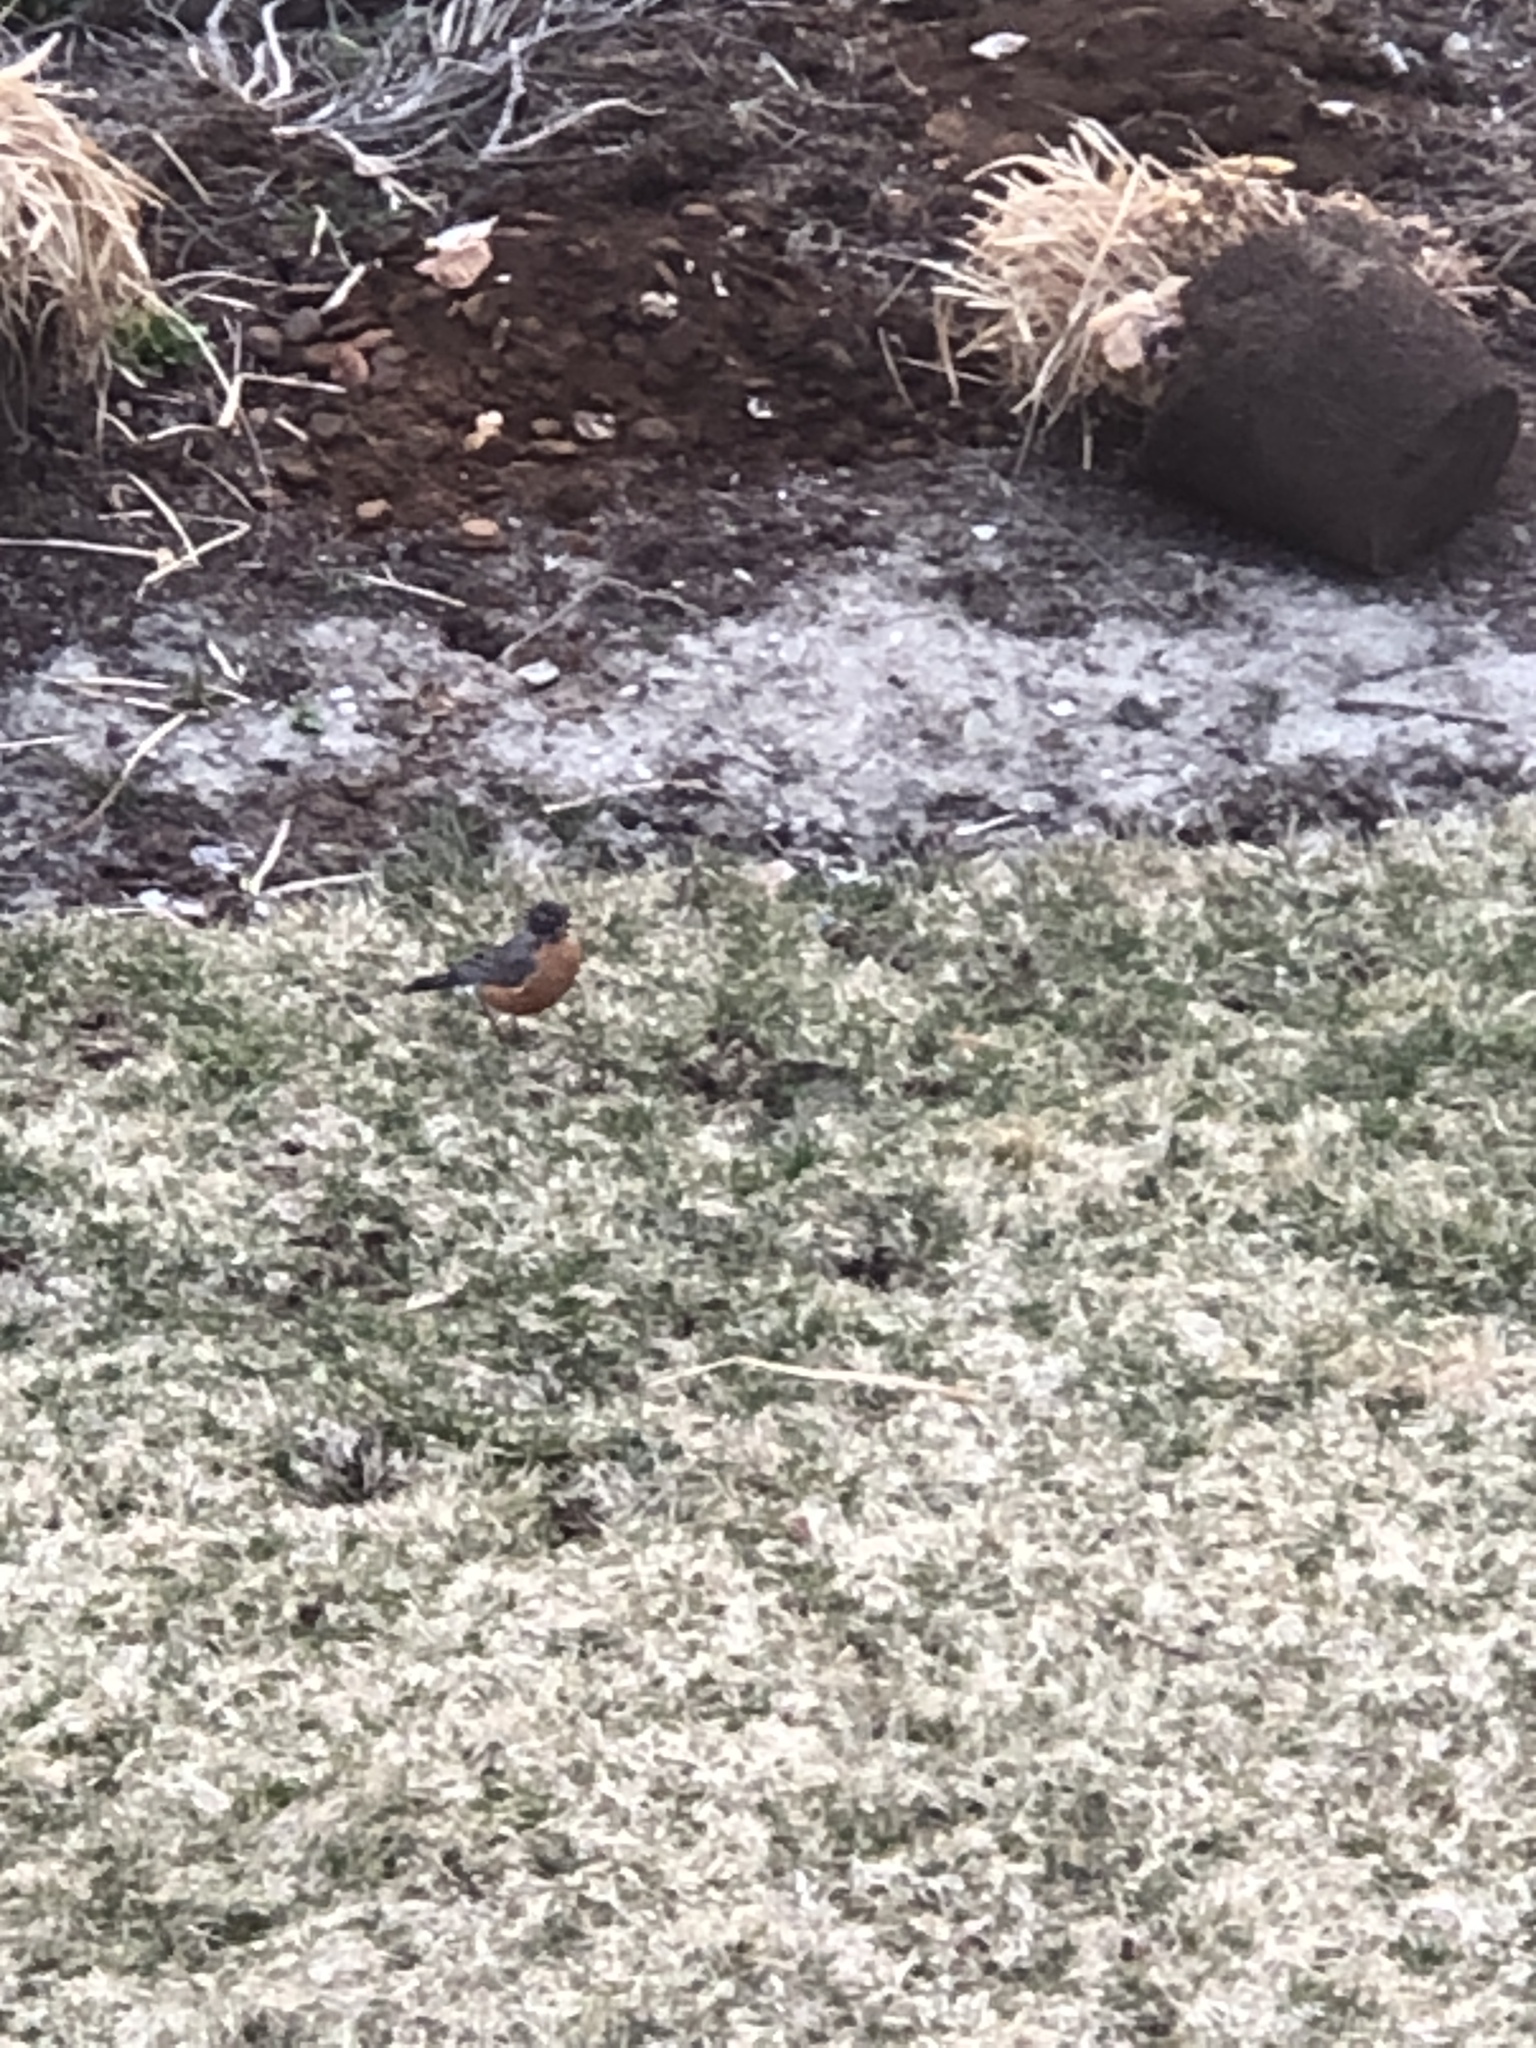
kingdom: Animalia
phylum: Chordata
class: Aves
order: Passeriformes
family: Turdidae
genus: Turdus
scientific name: Turdus migratorius
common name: American robin
